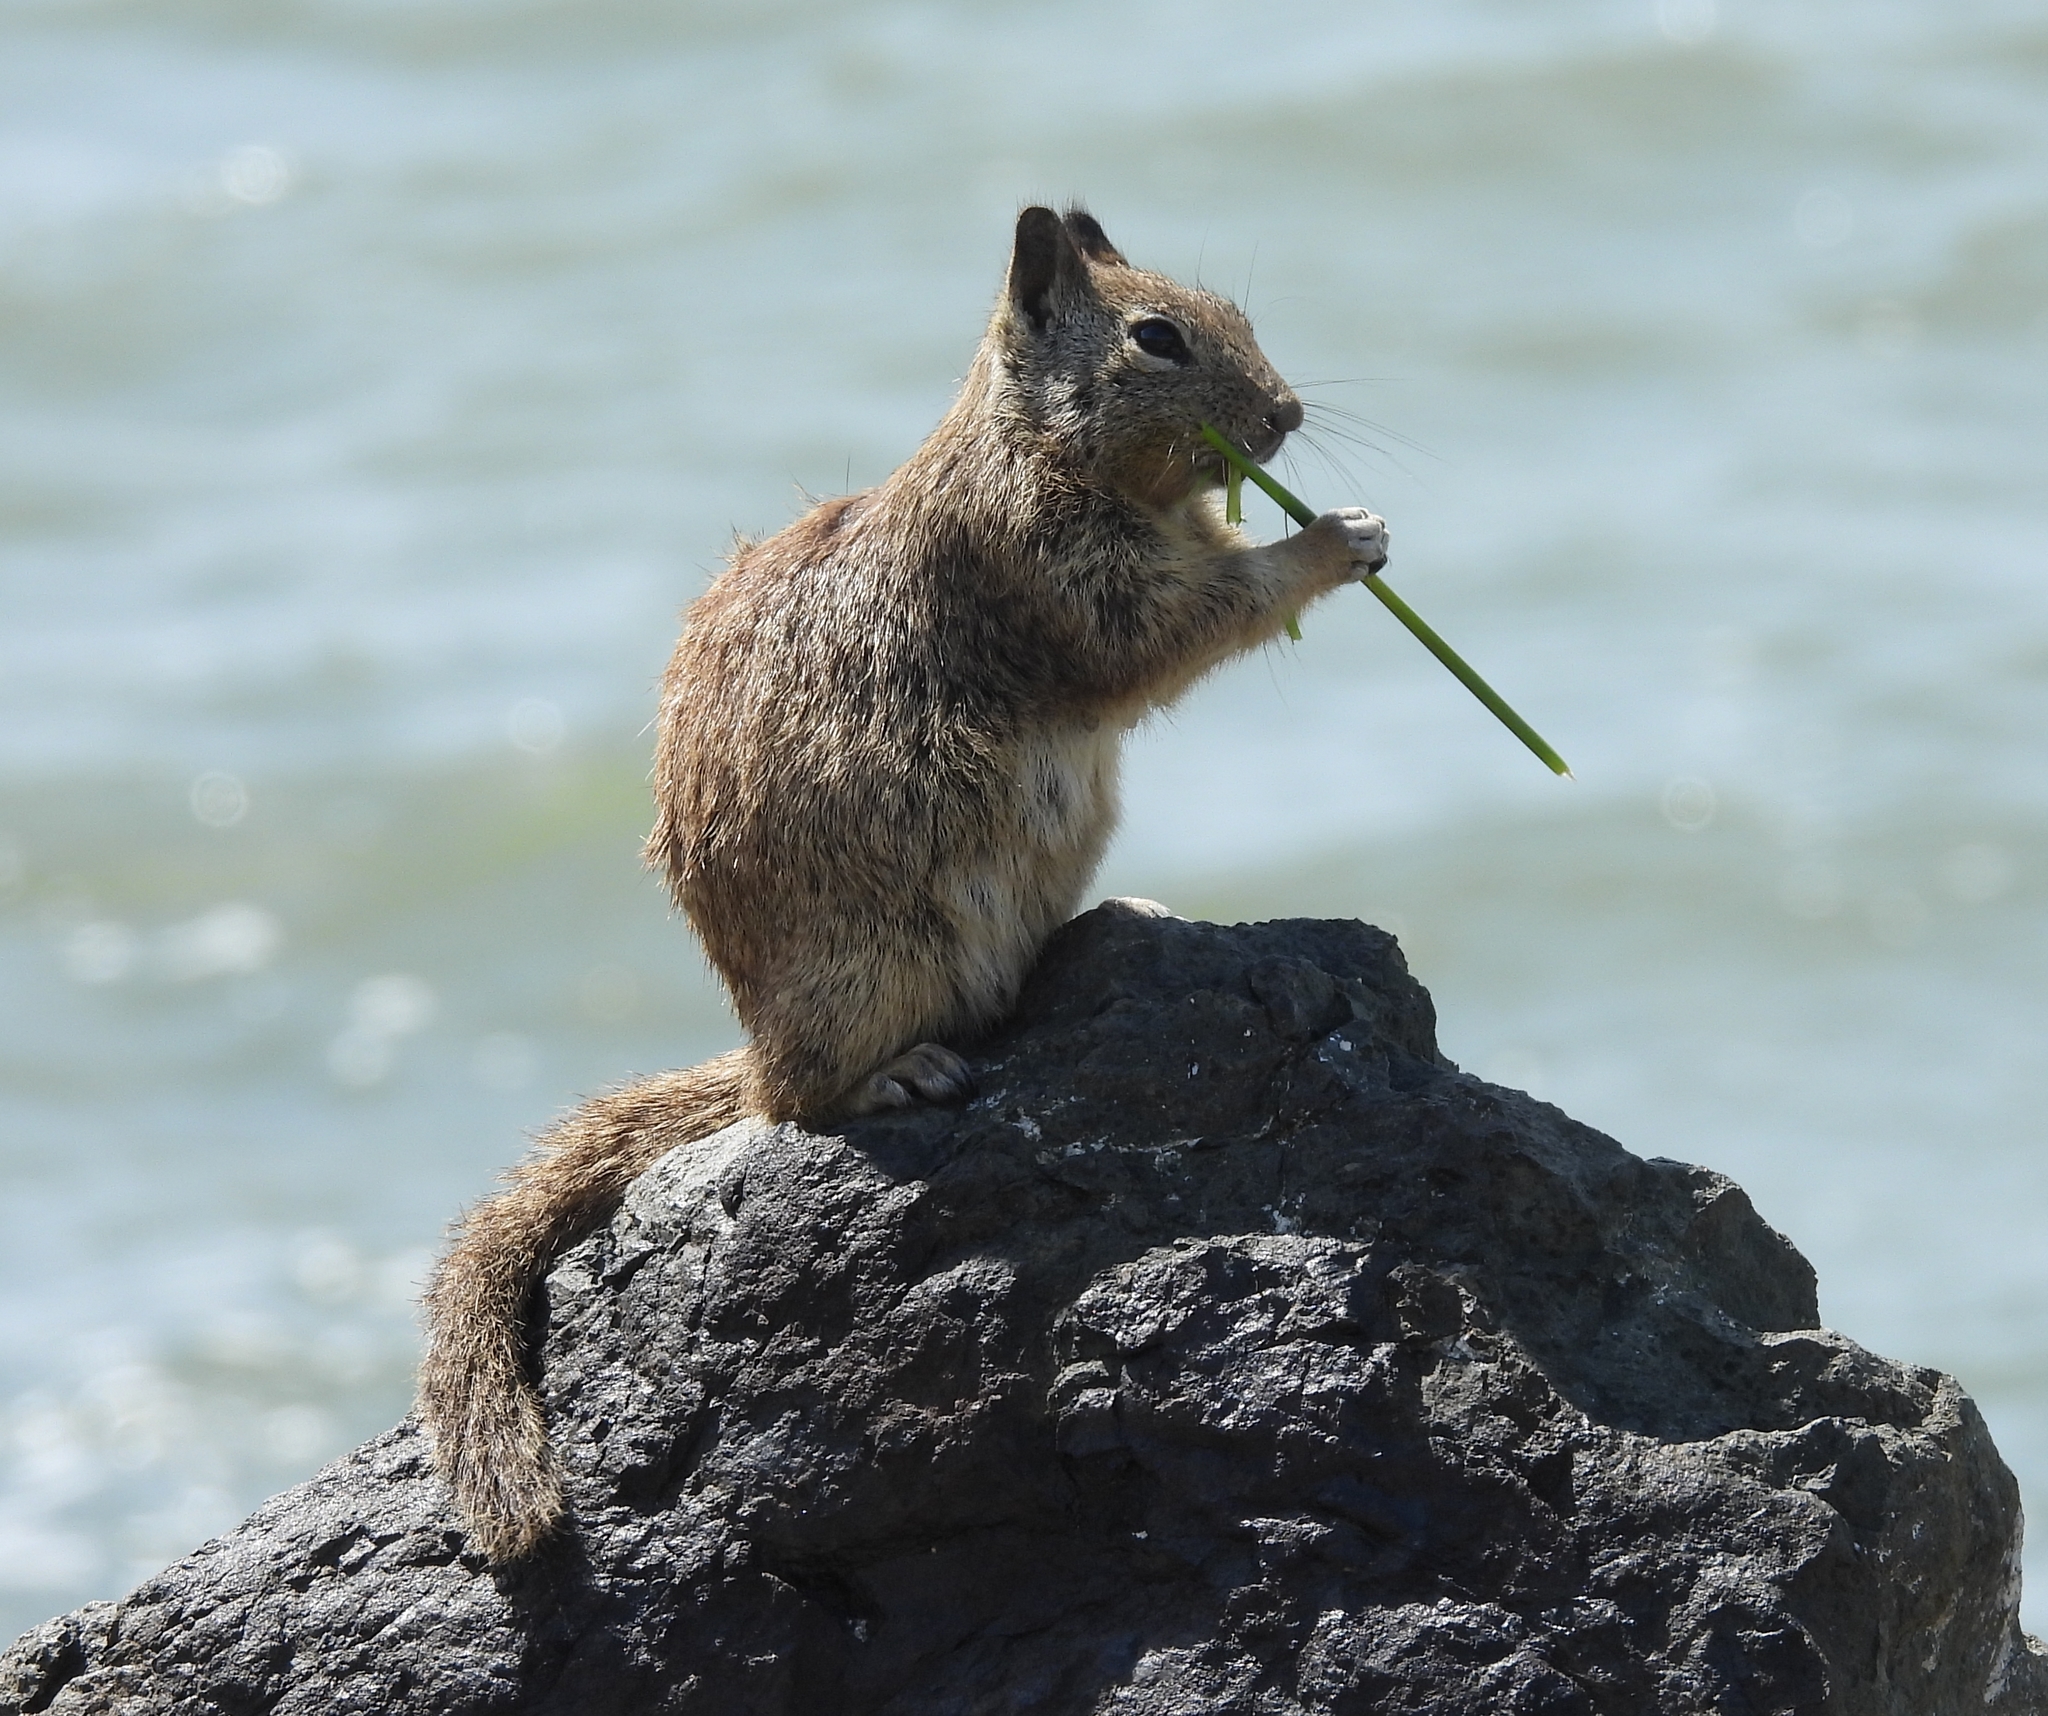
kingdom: Animalia
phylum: Chordata
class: Mammalia
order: Rodentia
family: Sciuridae
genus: Otospermophilus
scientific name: Otospermophilus beecheyi
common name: California ground squirrel
